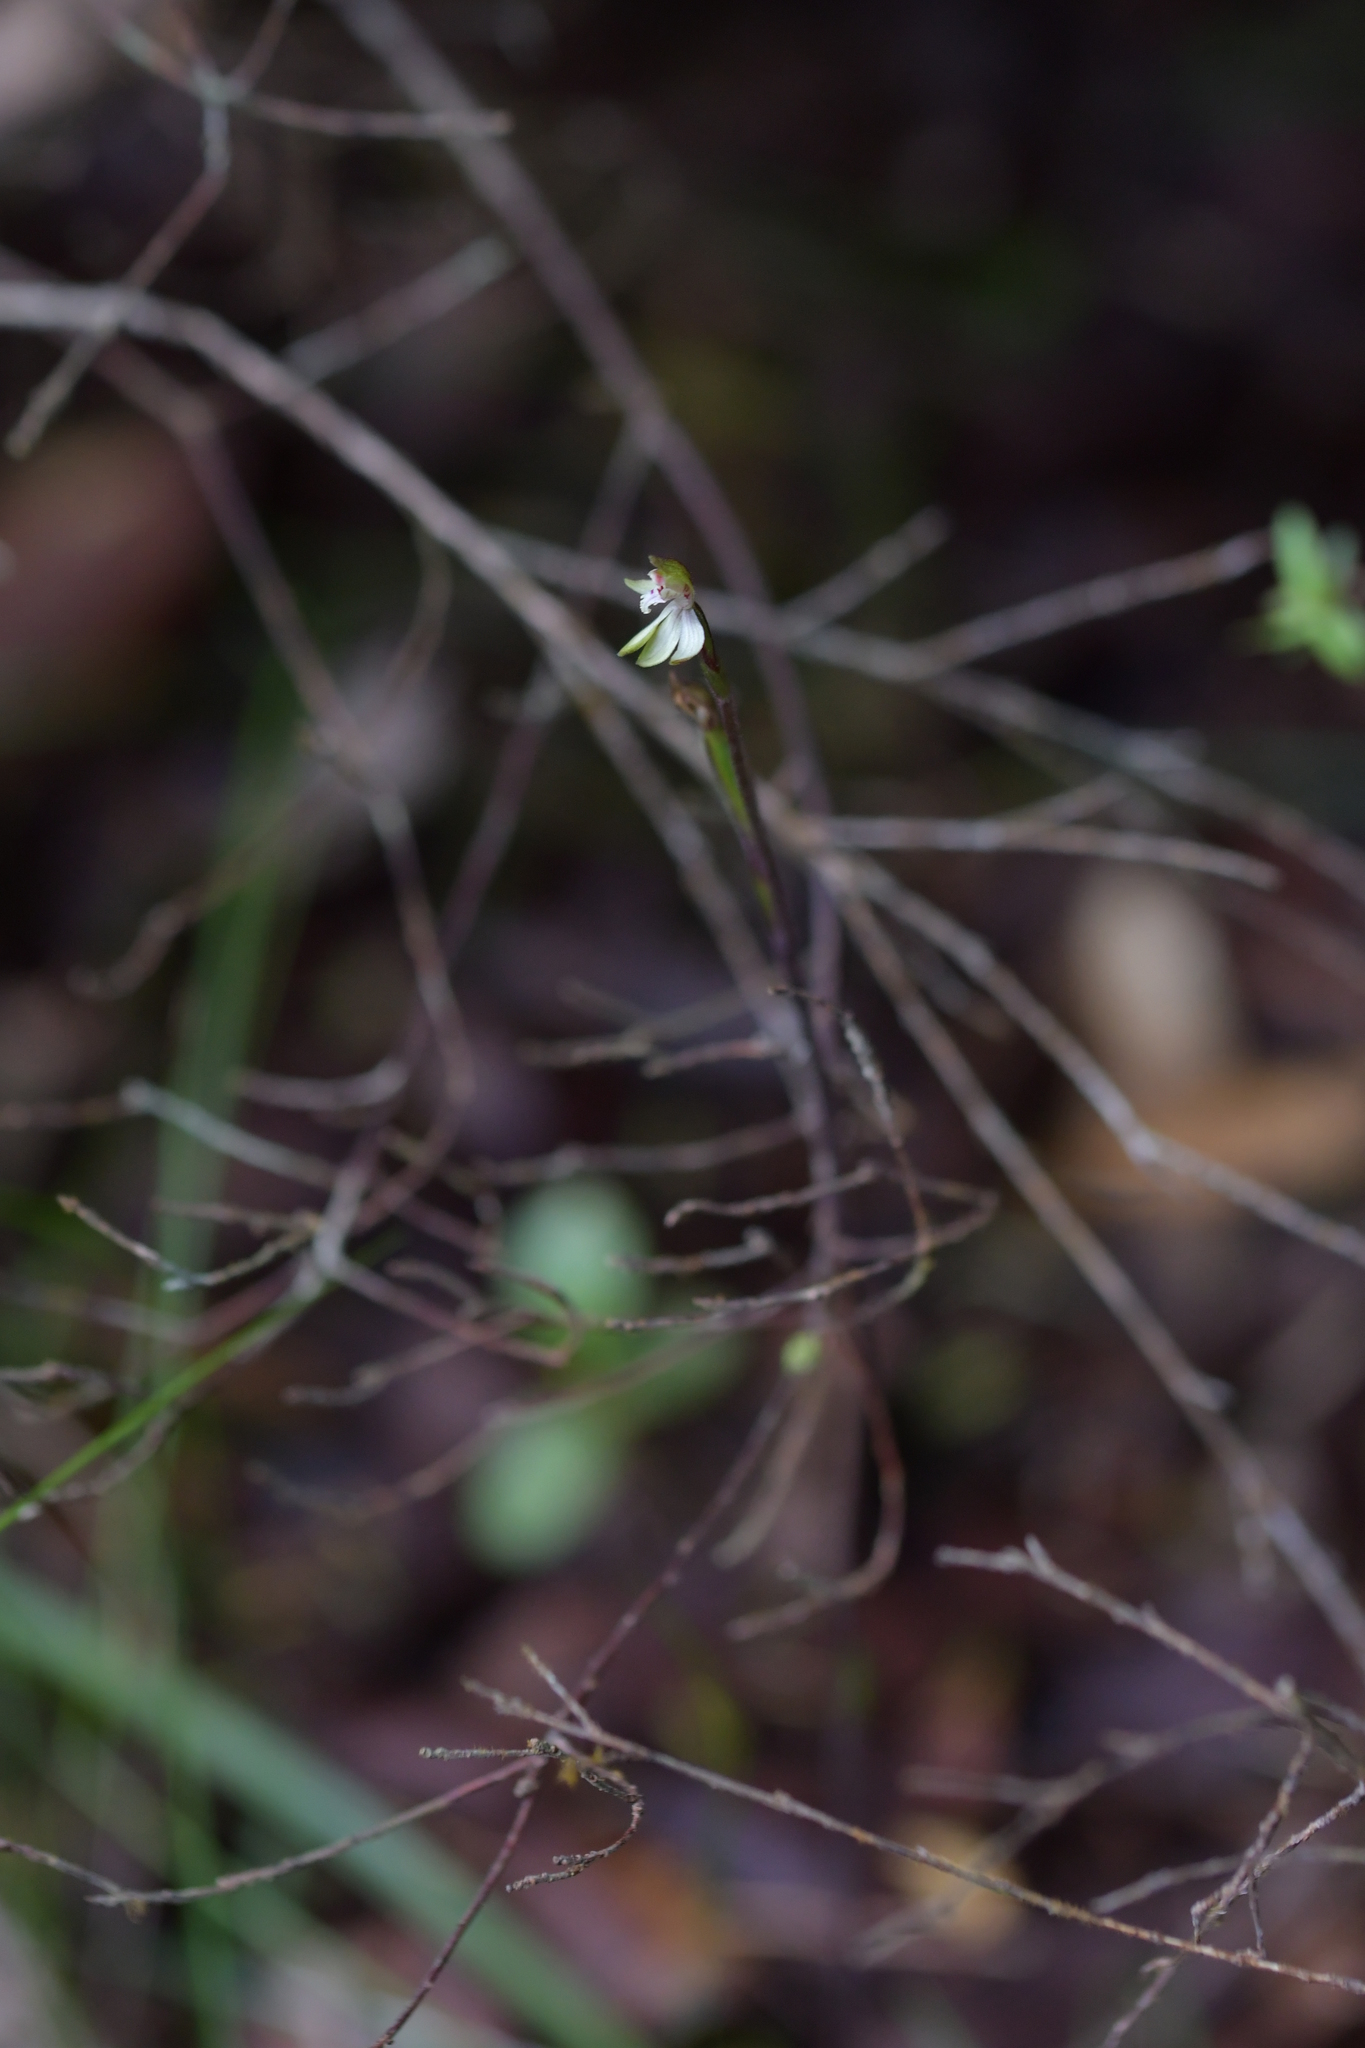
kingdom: Plantae
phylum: Tracheophyta
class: Liliopsida
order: Asparagales
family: Orchidaceae
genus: Caladenia
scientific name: Caladenia chlorostyla
